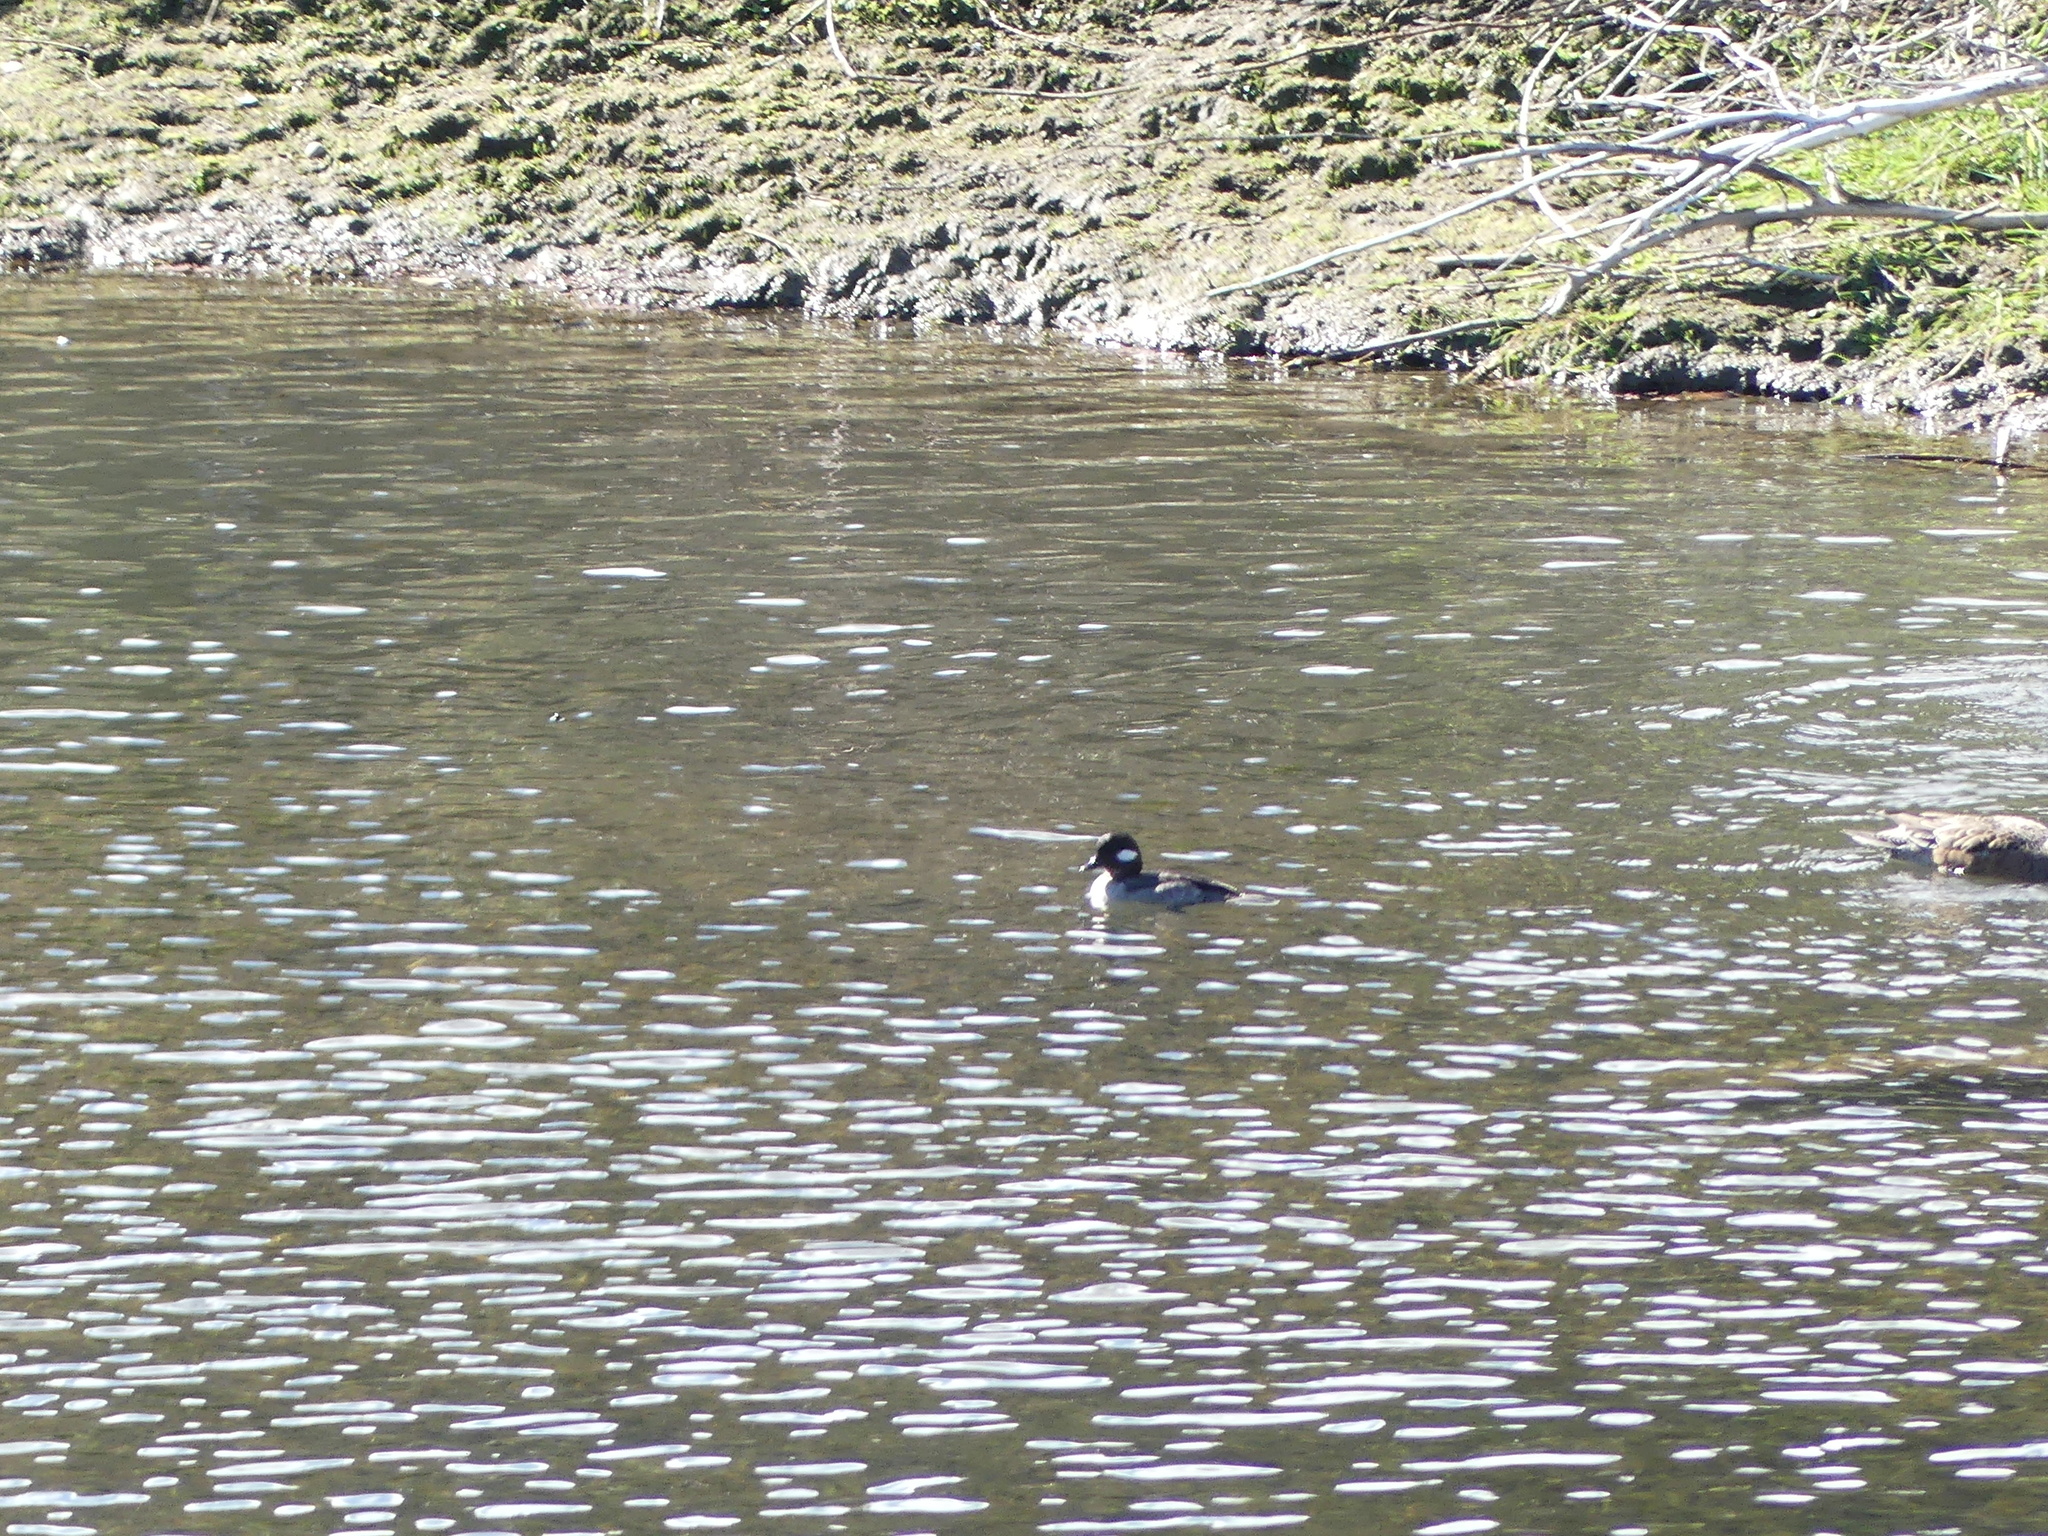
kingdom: Animalia
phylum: Chordata
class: Aves
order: Anseriformes
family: Anatidae
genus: Bucephala
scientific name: Bucephala albeola
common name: Bufflehead
